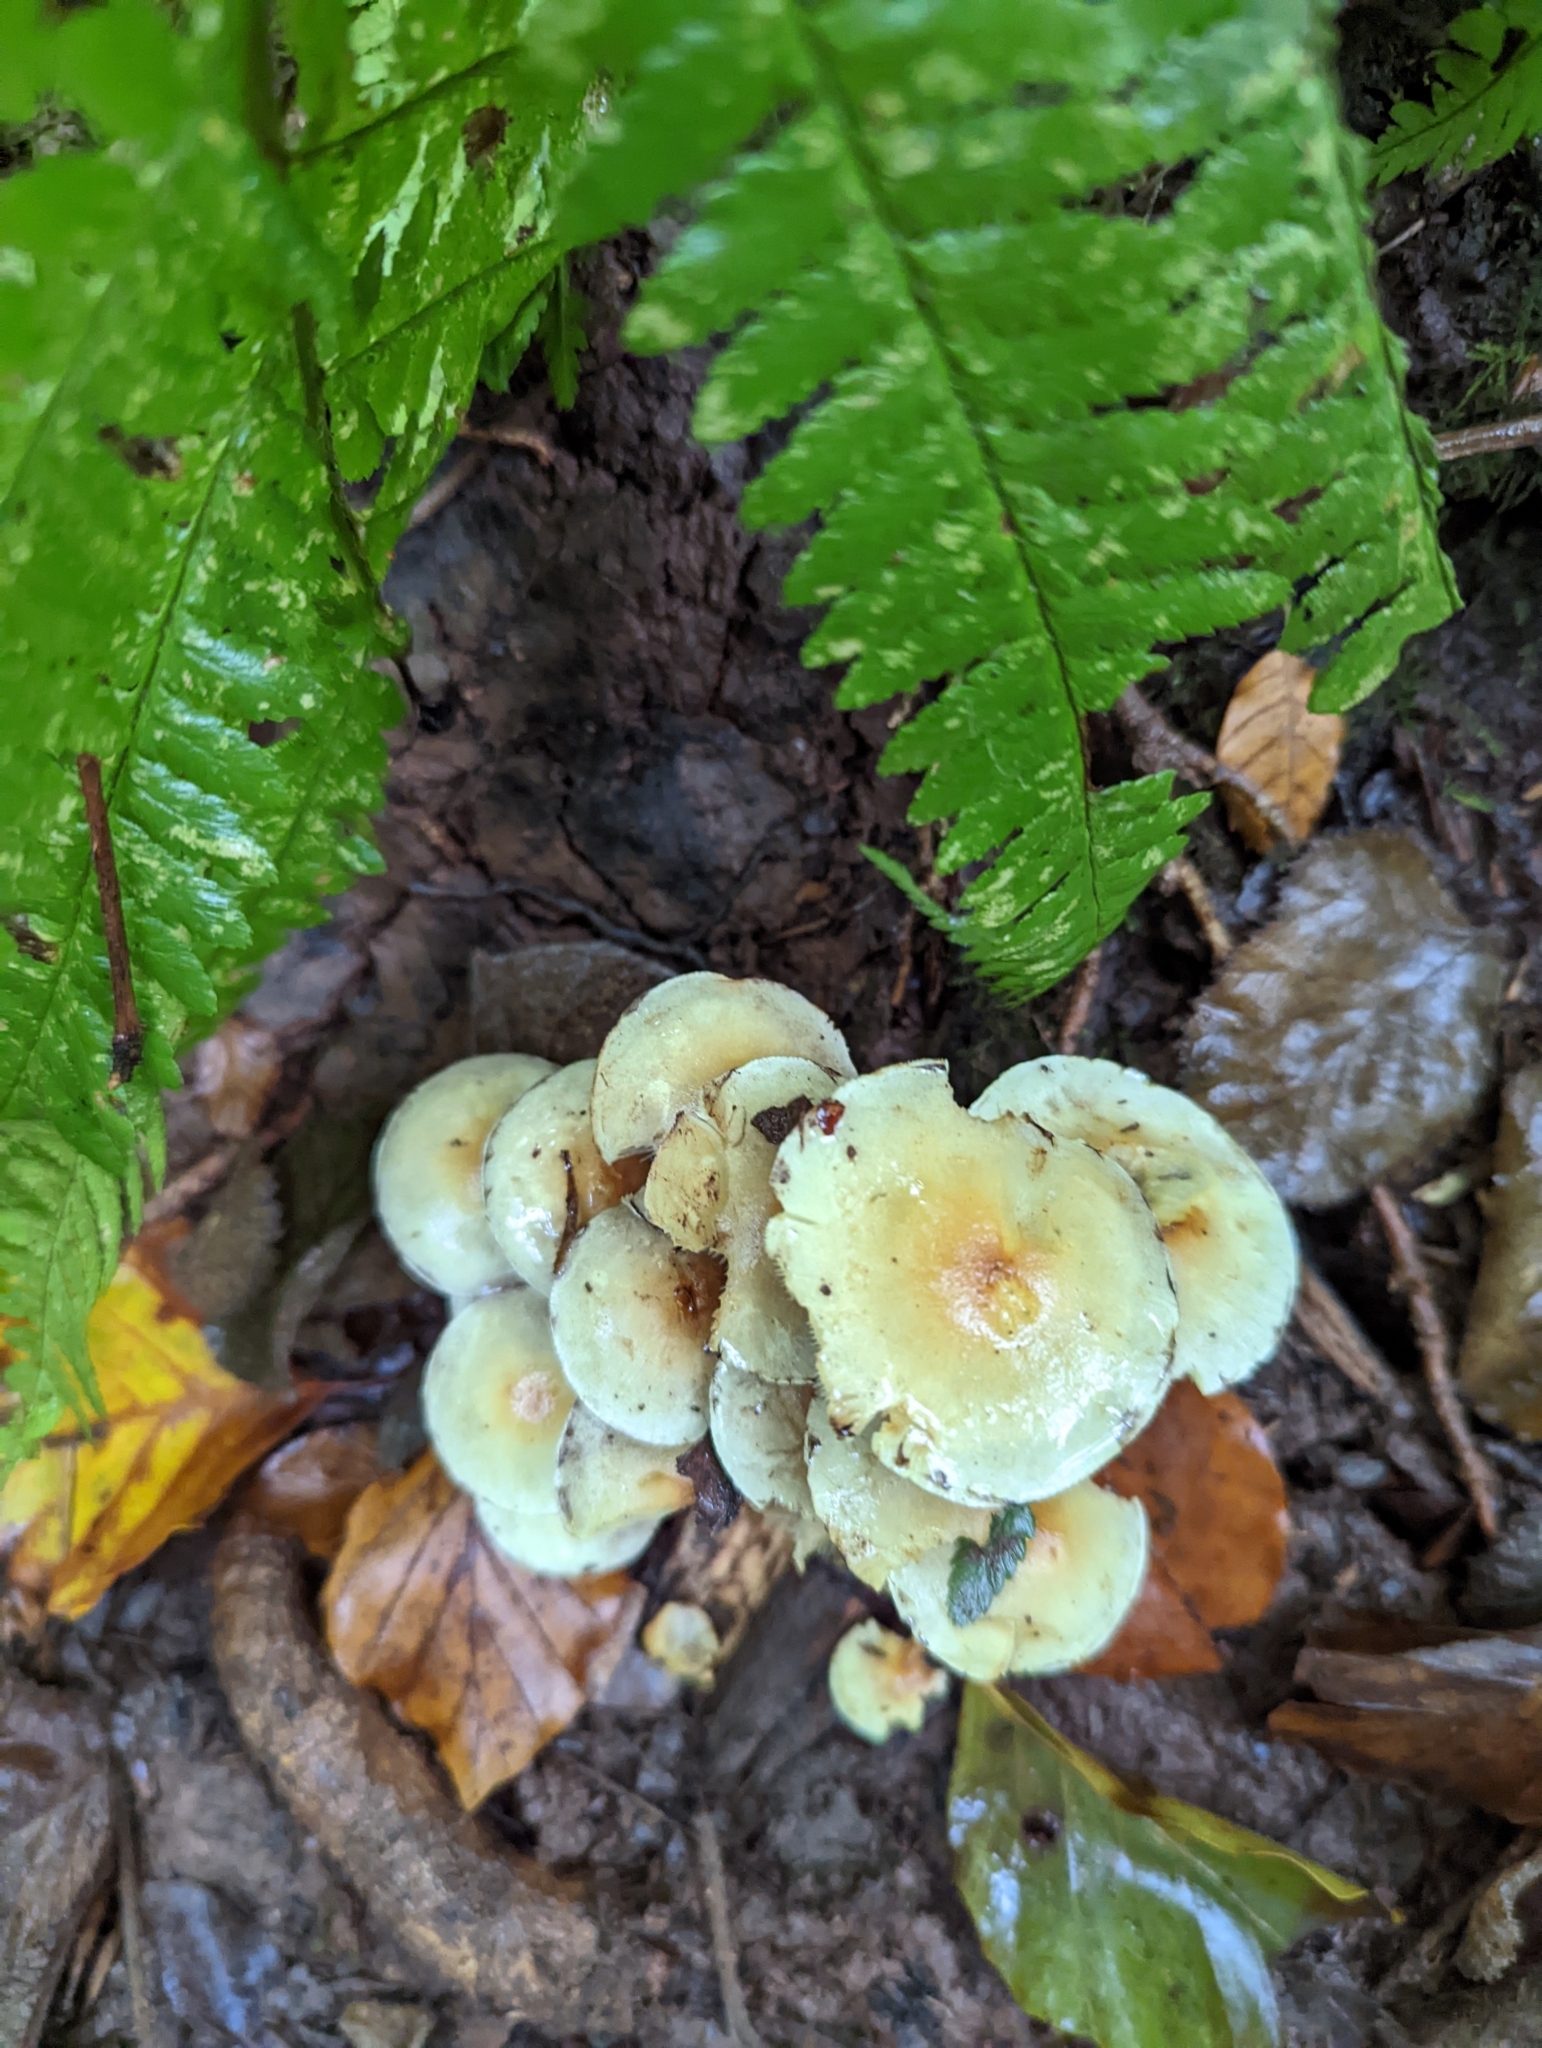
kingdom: Fungi
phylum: Basidiomycota
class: Agaricomycetes
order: Agaricales
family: Strophariaceae
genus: Hypholoma
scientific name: Hypholoma fasciculare
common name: Sulphur tuft
